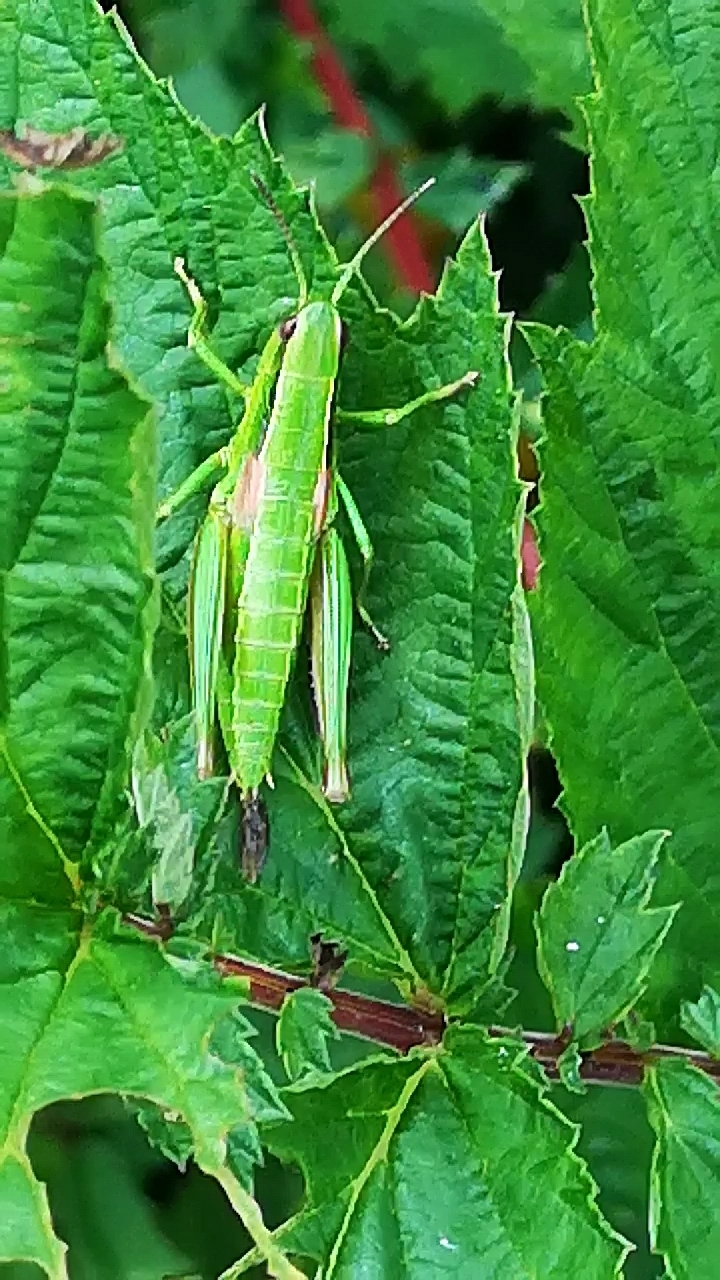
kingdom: Animalia
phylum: Arthropoda
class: Insecta
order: Orthoptera
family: Acrididae
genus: Euthystira
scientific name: Euthystira brachyptera
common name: Small gold grasshopper
